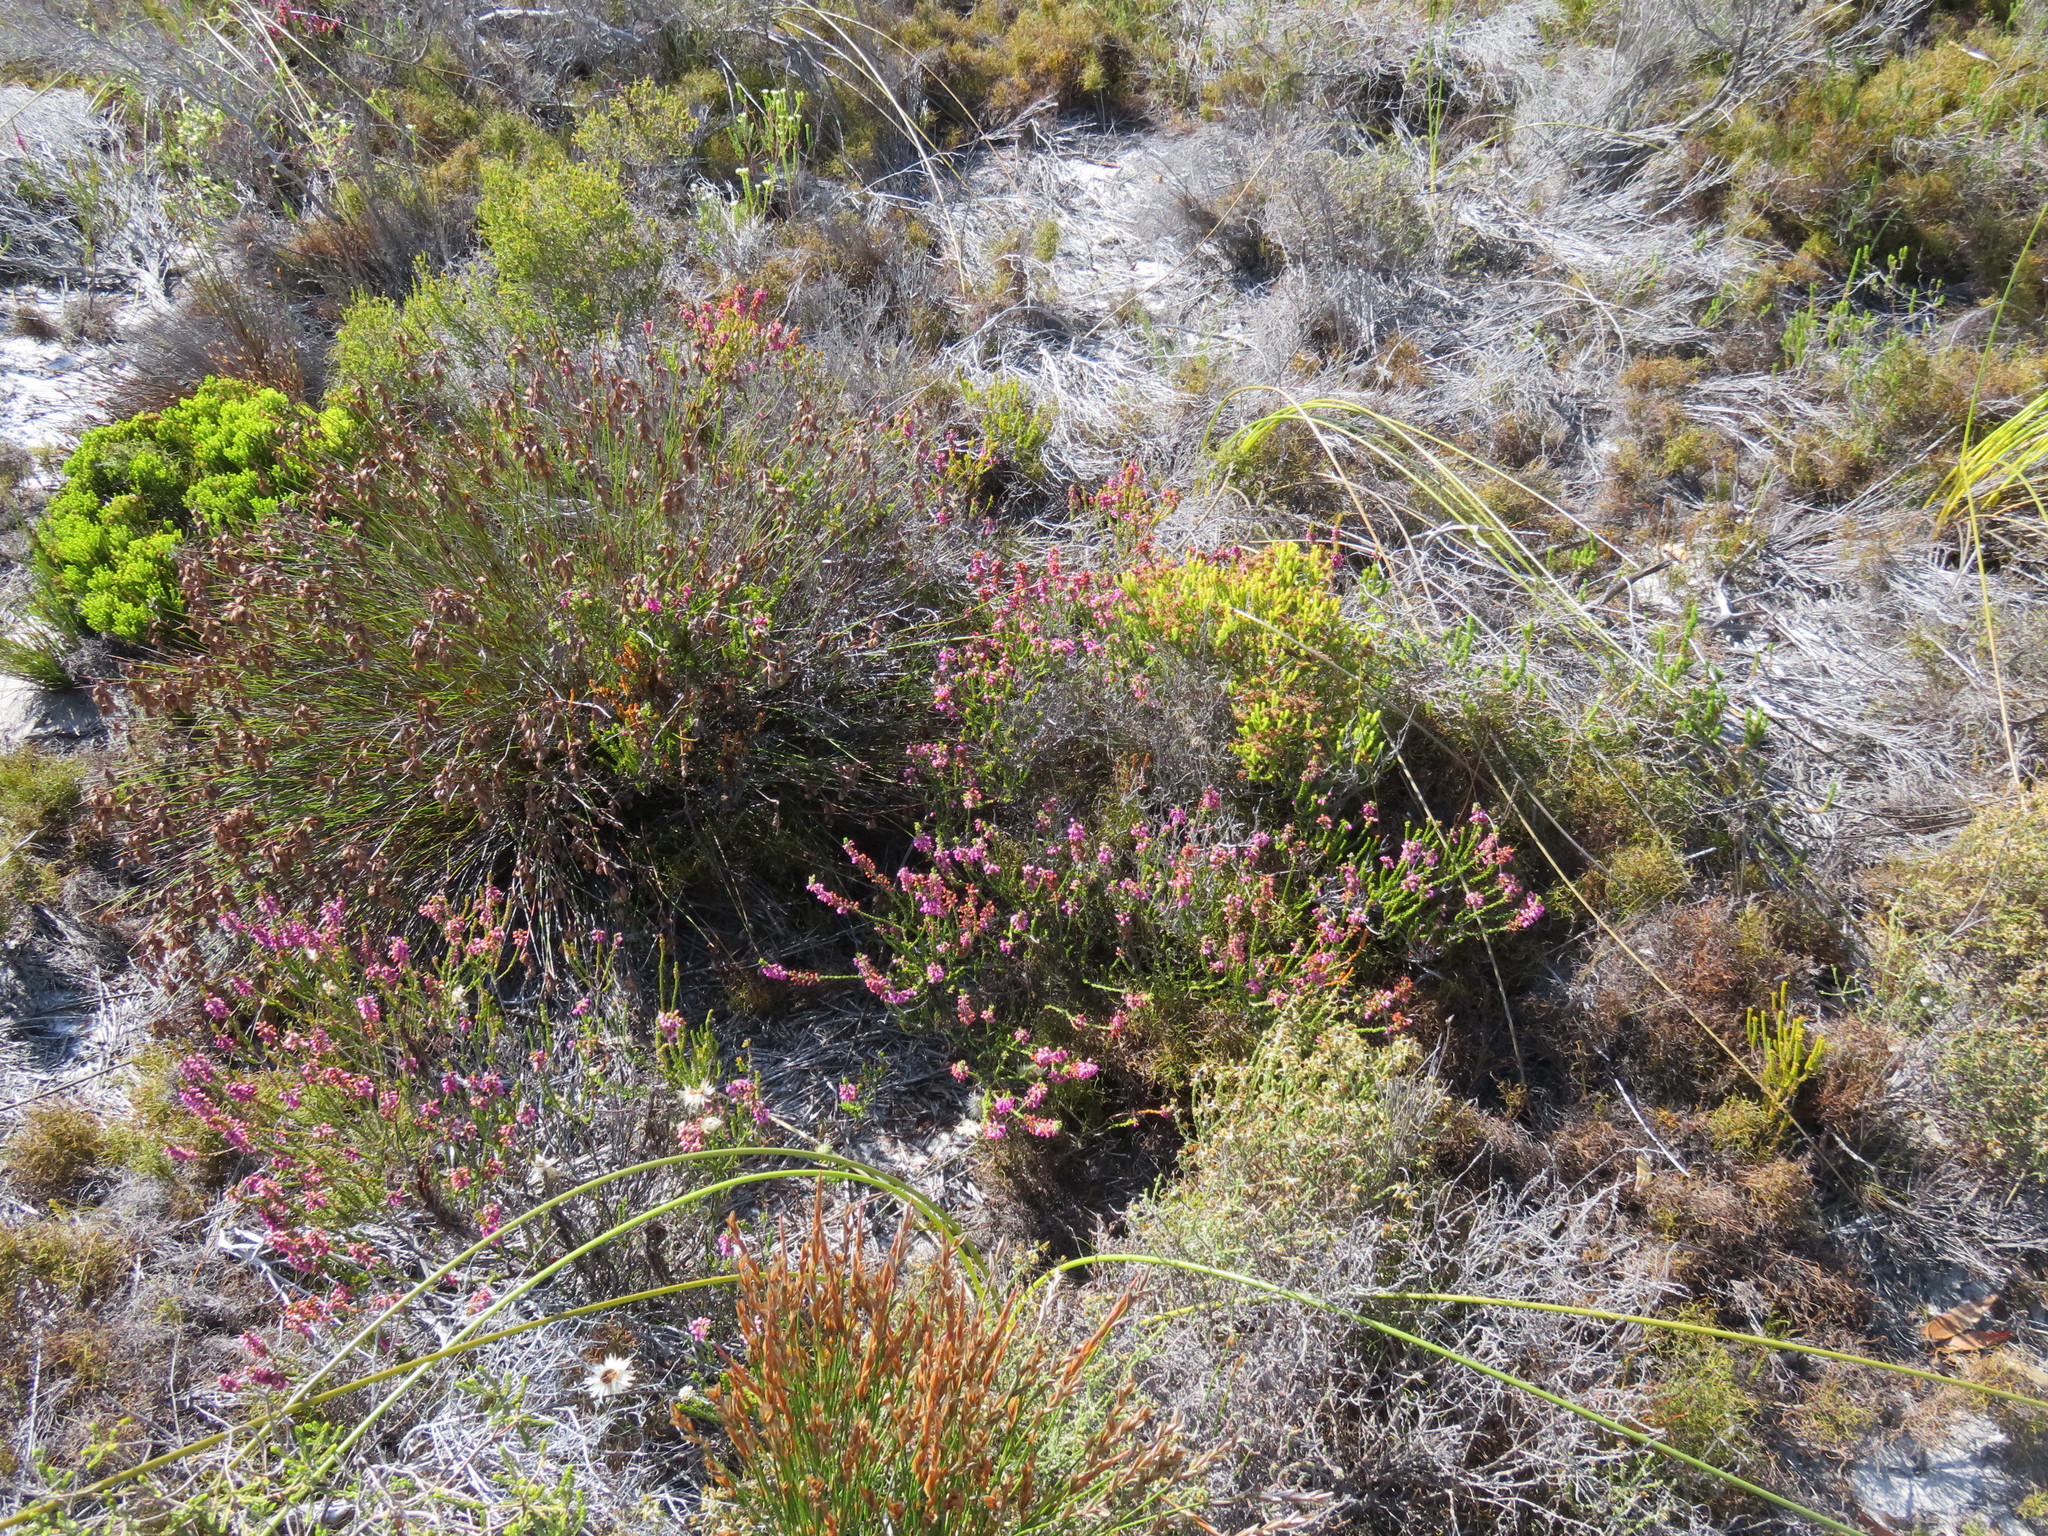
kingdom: Plantae
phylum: Tracheophyta
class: Magnoliopsida
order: Ericales
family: Ericaceae
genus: Erica
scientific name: Erica pulchella
